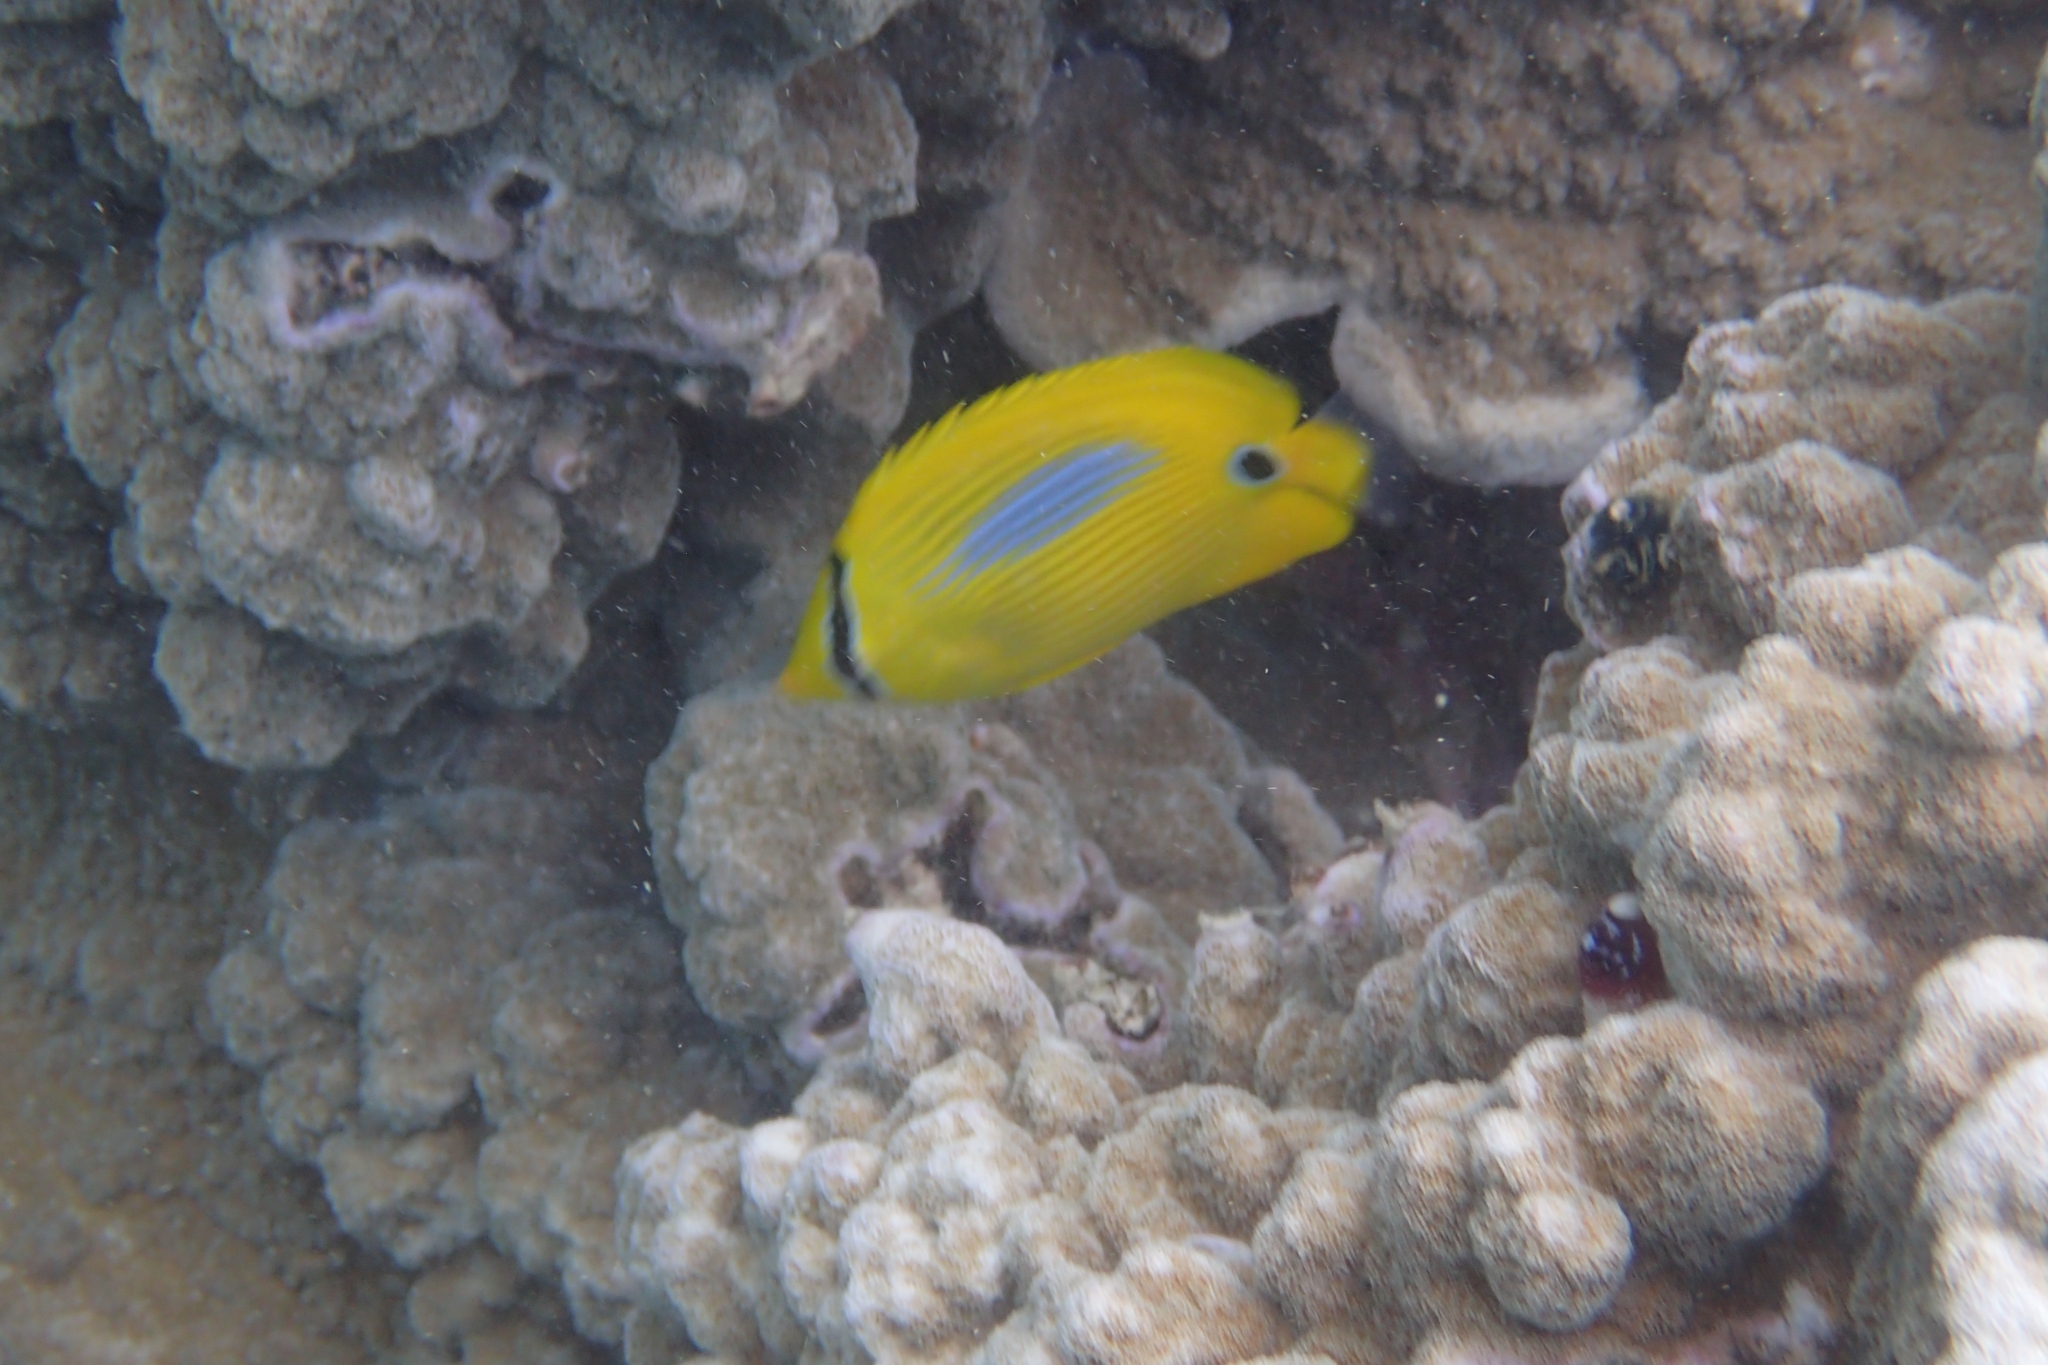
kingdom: Animalia
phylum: Chordata
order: Perciformes
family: Chaetodontidae
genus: Chaetodon
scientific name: Chaetodon plebeius
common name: Bluespot butterflyfish
